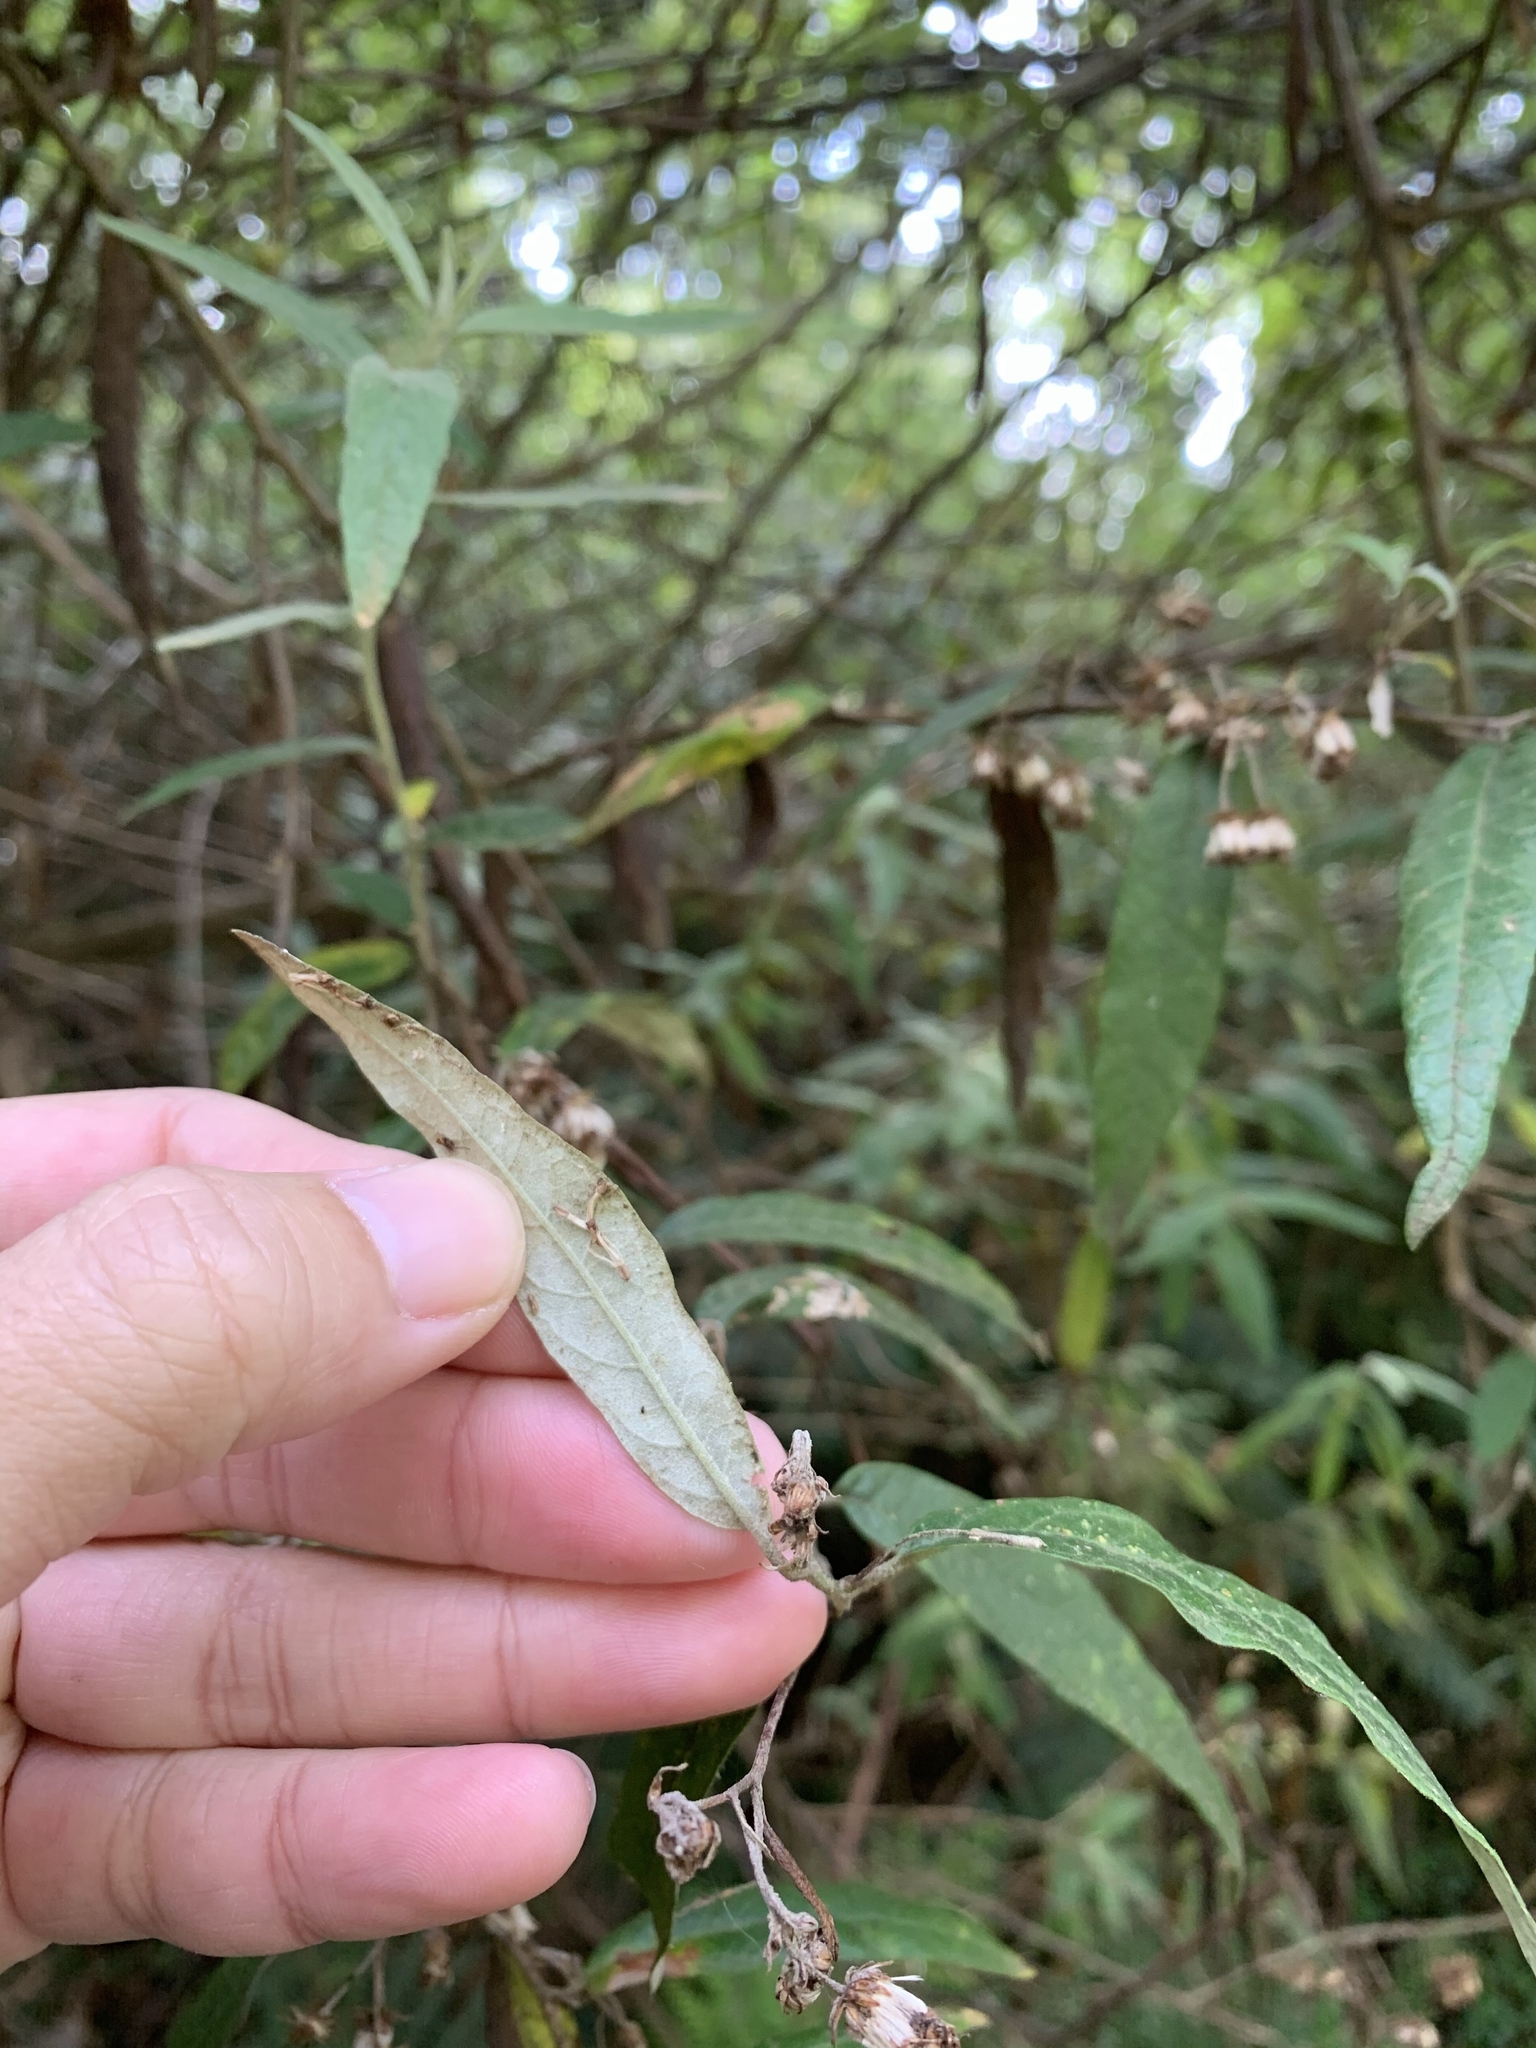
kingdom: Plantae
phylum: Tracheophyta
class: Magnoliopsida
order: Asterales
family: Asteraceae
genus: Olearia
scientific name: Olearia lirata
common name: Dusty daisybush
